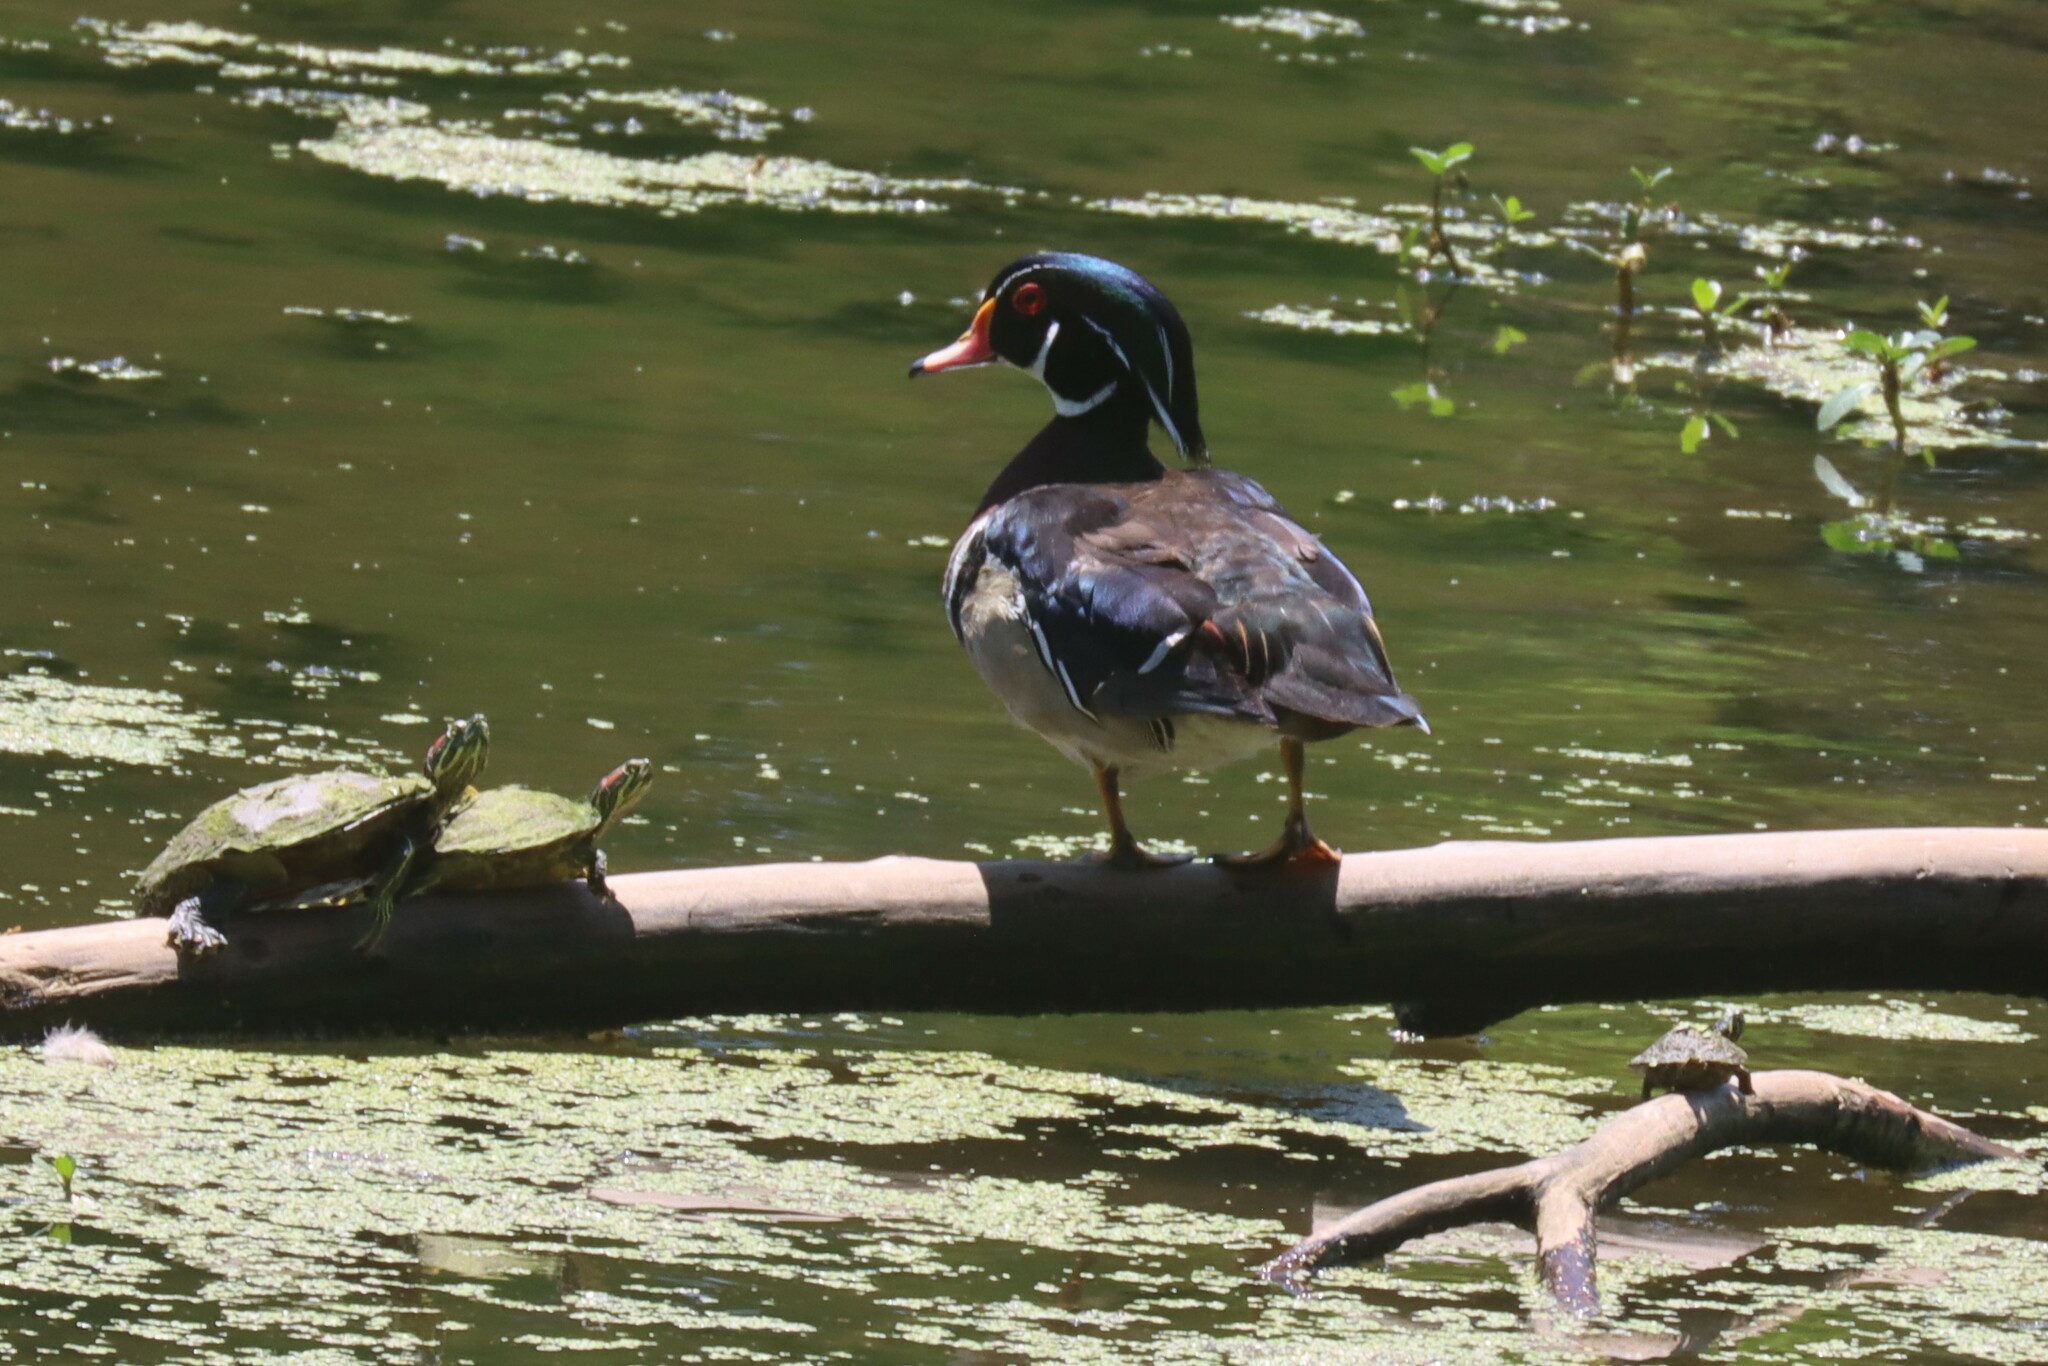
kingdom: Animalia
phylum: Chordata
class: Aves
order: Anseriformes
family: Anatidae
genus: Aix
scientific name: Aix sponsa
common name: Wood duck
